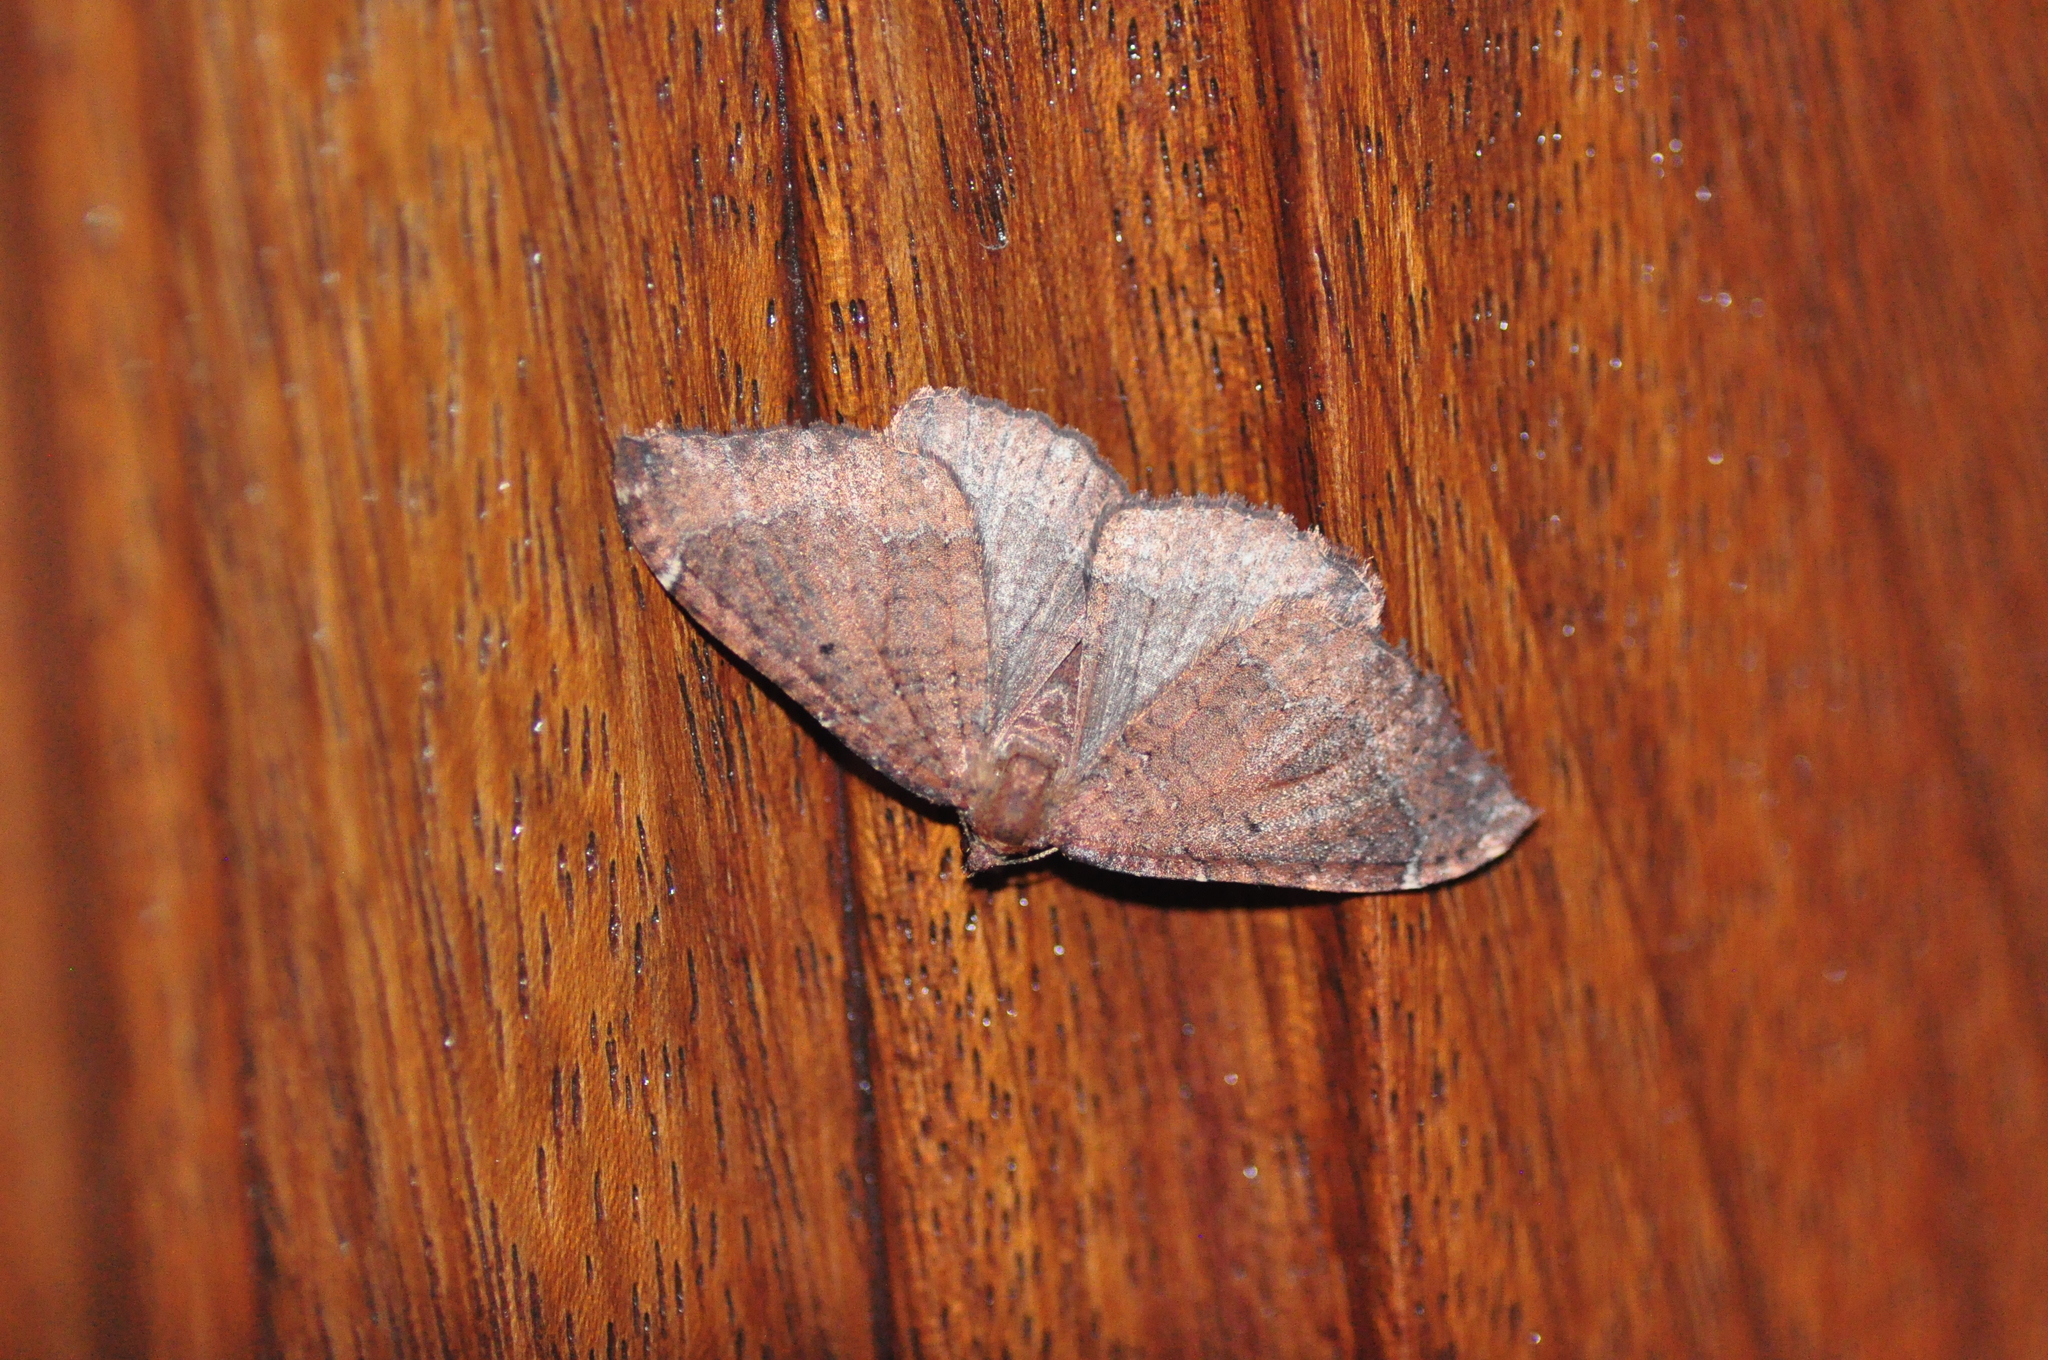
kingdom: Animalia
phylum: Arthropoda
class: Insecta
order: Lepidoptera
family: Geometridae
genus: Herbulotina
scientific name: Herbulotina grandis
